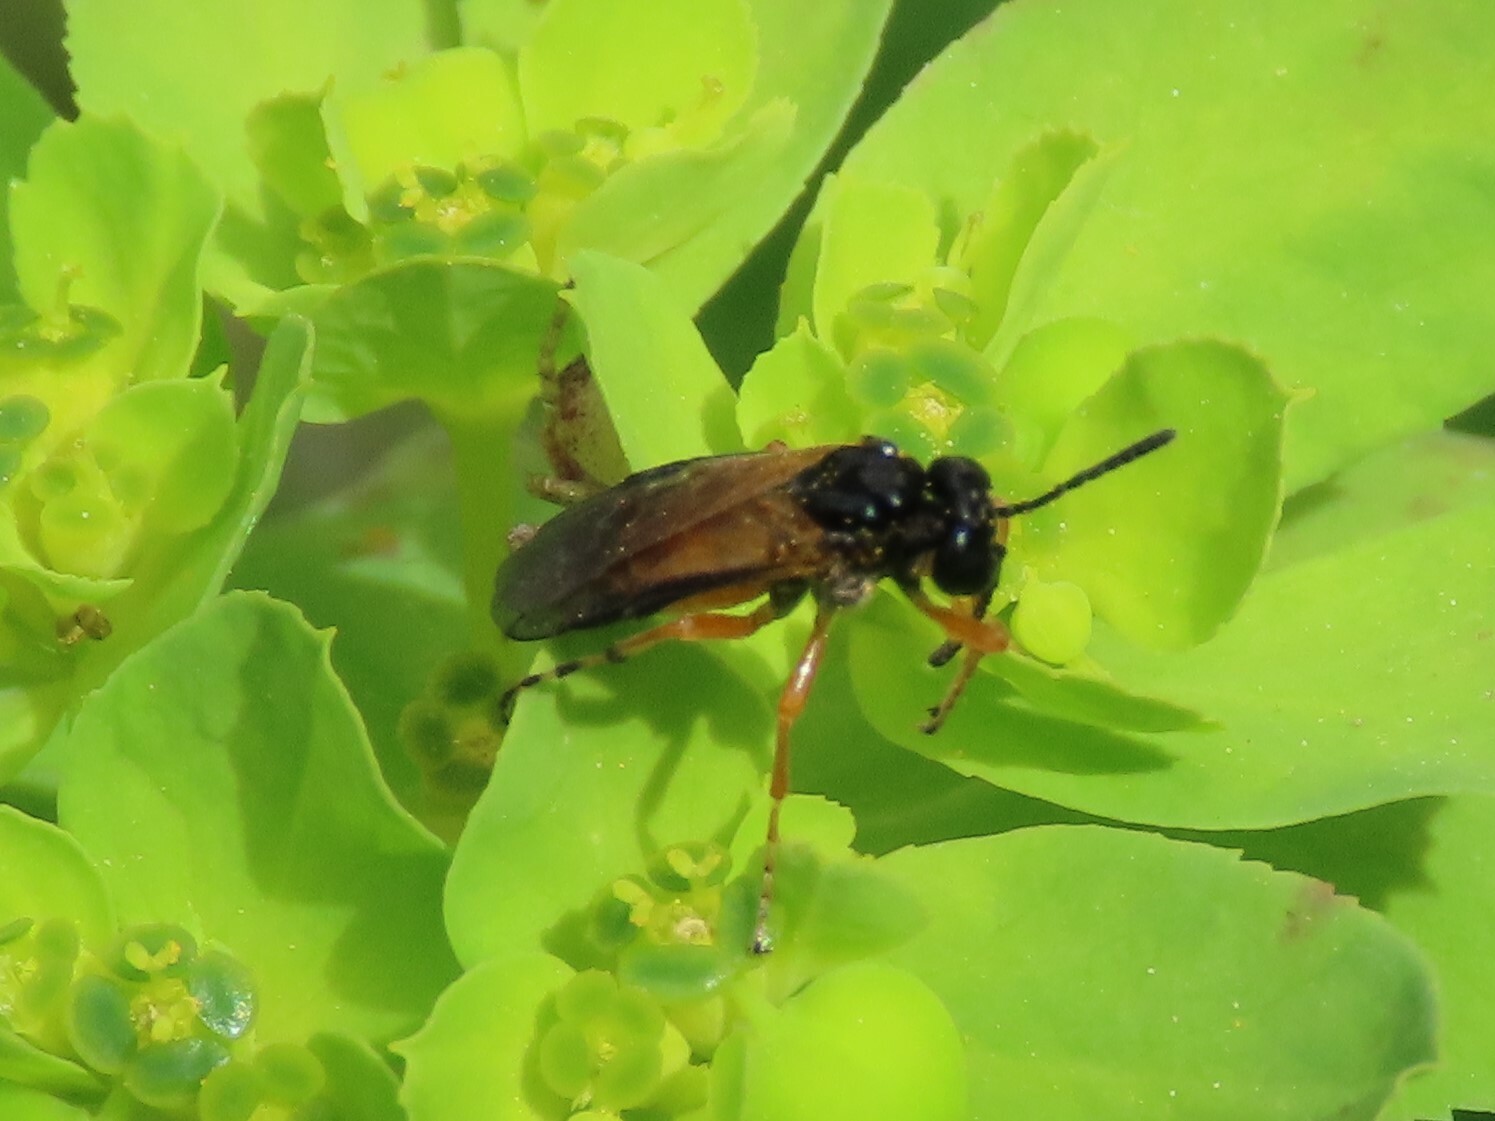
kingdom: Animalia
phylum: Arthropoda
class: Insecta
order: Hymenoptera
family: Tenthredinidae
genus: Athalia
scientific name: Athalia
